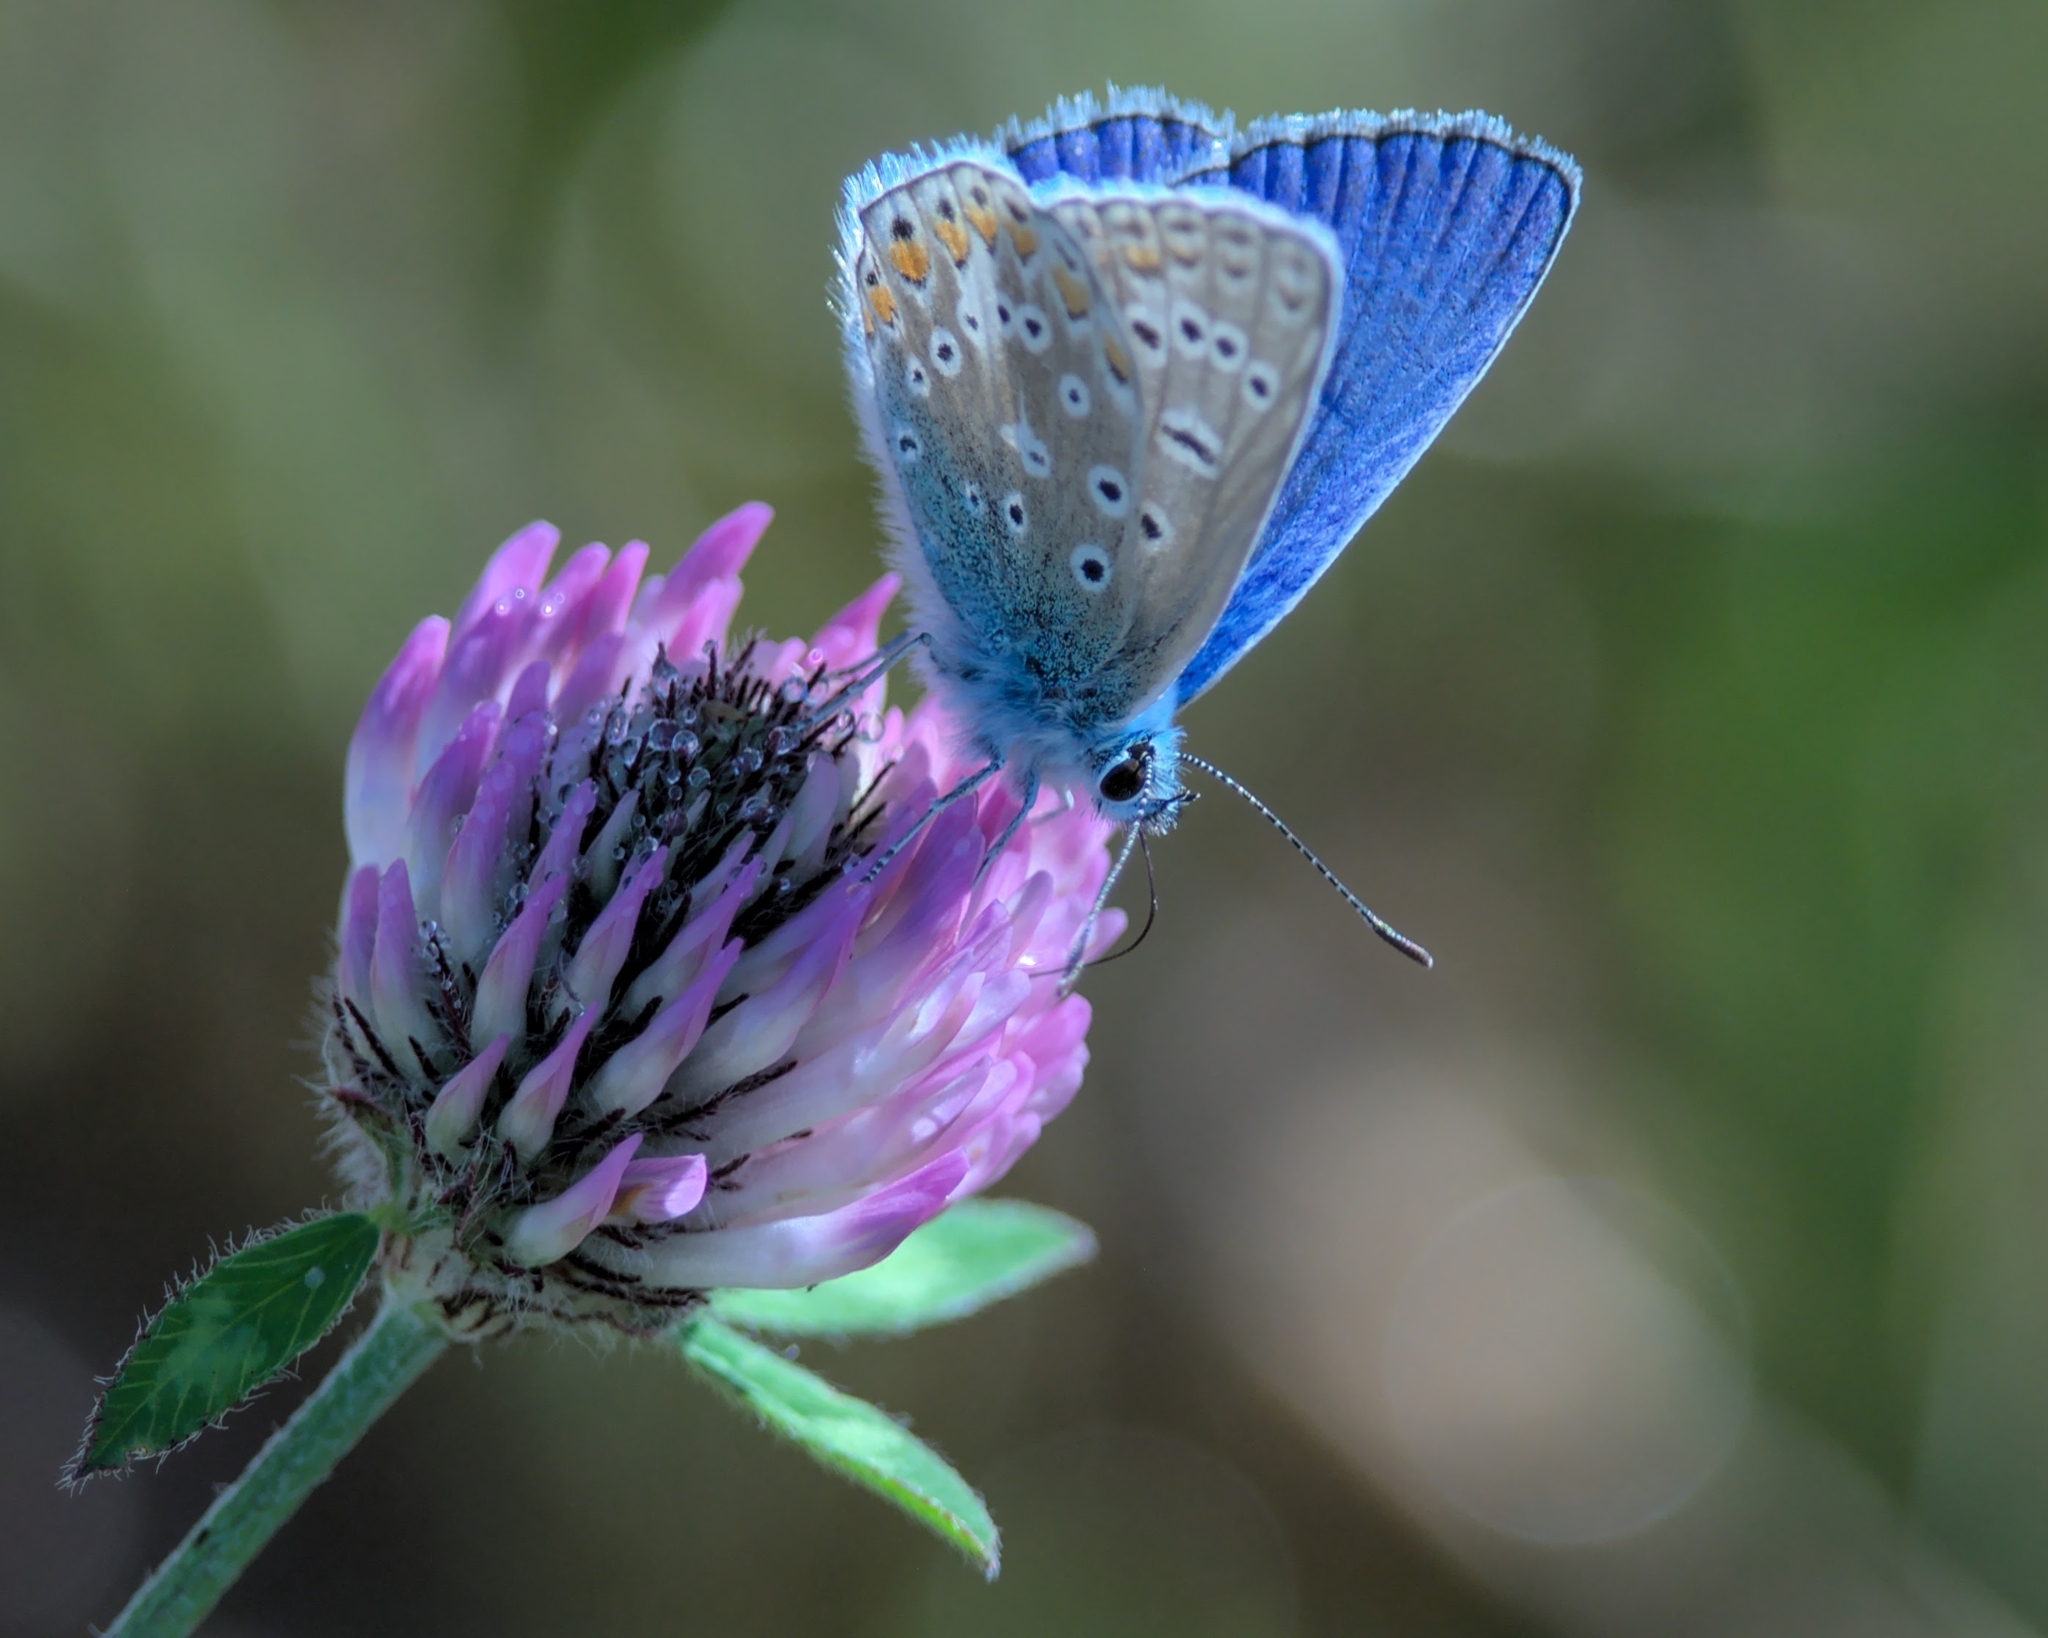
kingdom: Animalia
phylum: Arthropoda
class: Insecta
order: Lepidoptera
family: Lycaenidae
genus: Polyommatus
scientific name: Polyommatus icarus
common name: Common blue
